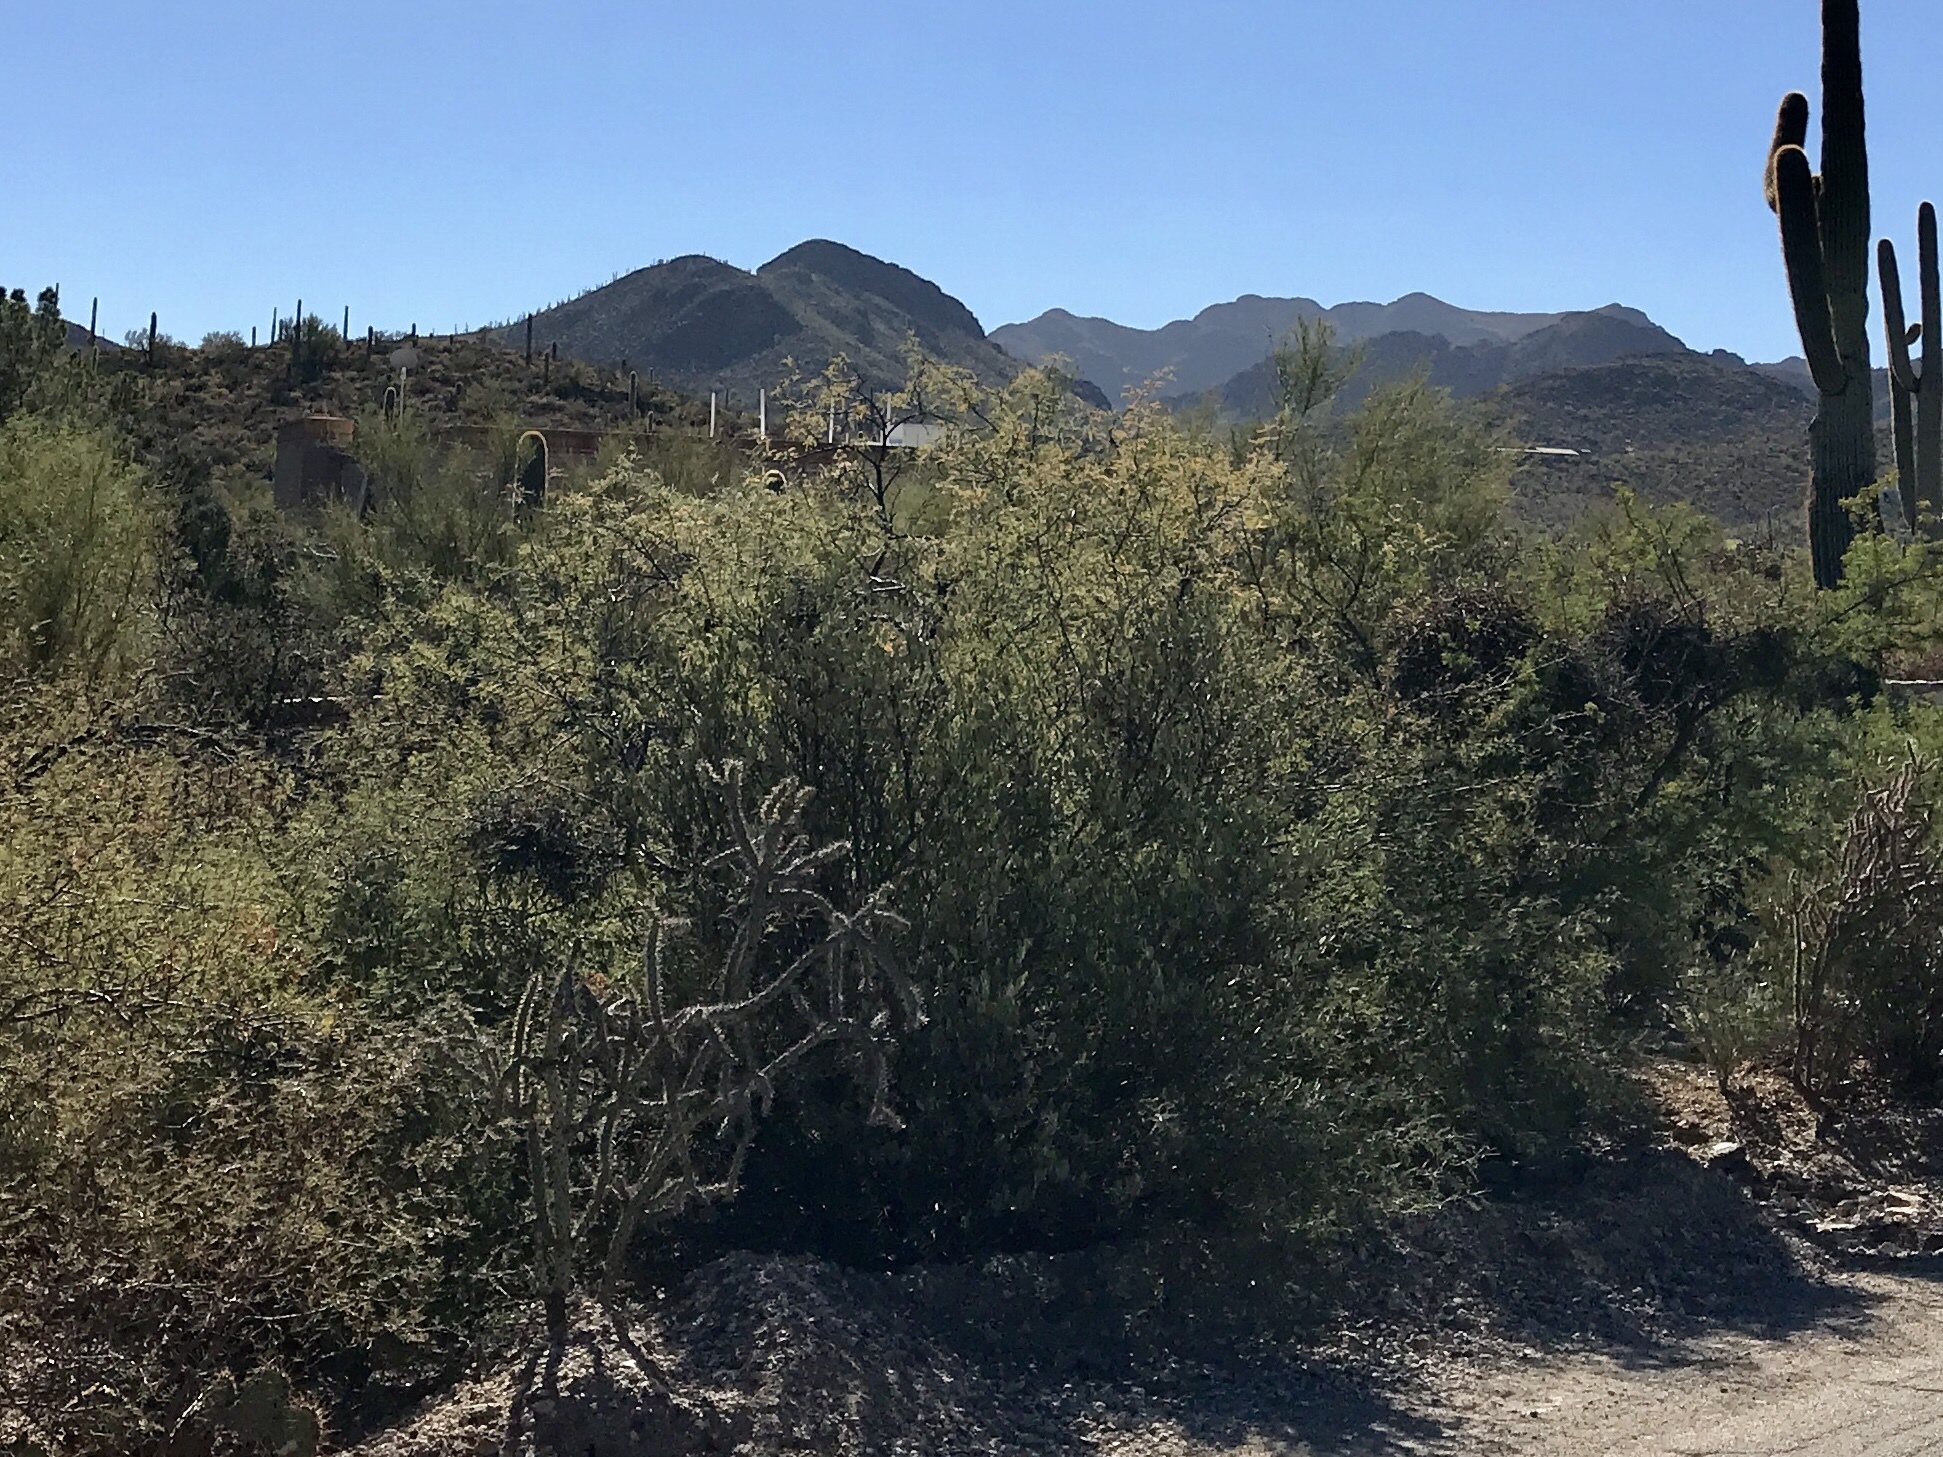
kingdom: Plantae
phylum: Tracheophyta
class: Magnoliopsida
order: Fabales
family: Fabaceae
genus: Vachellia
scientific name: Vachellia constricta
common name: Mescat acacia
